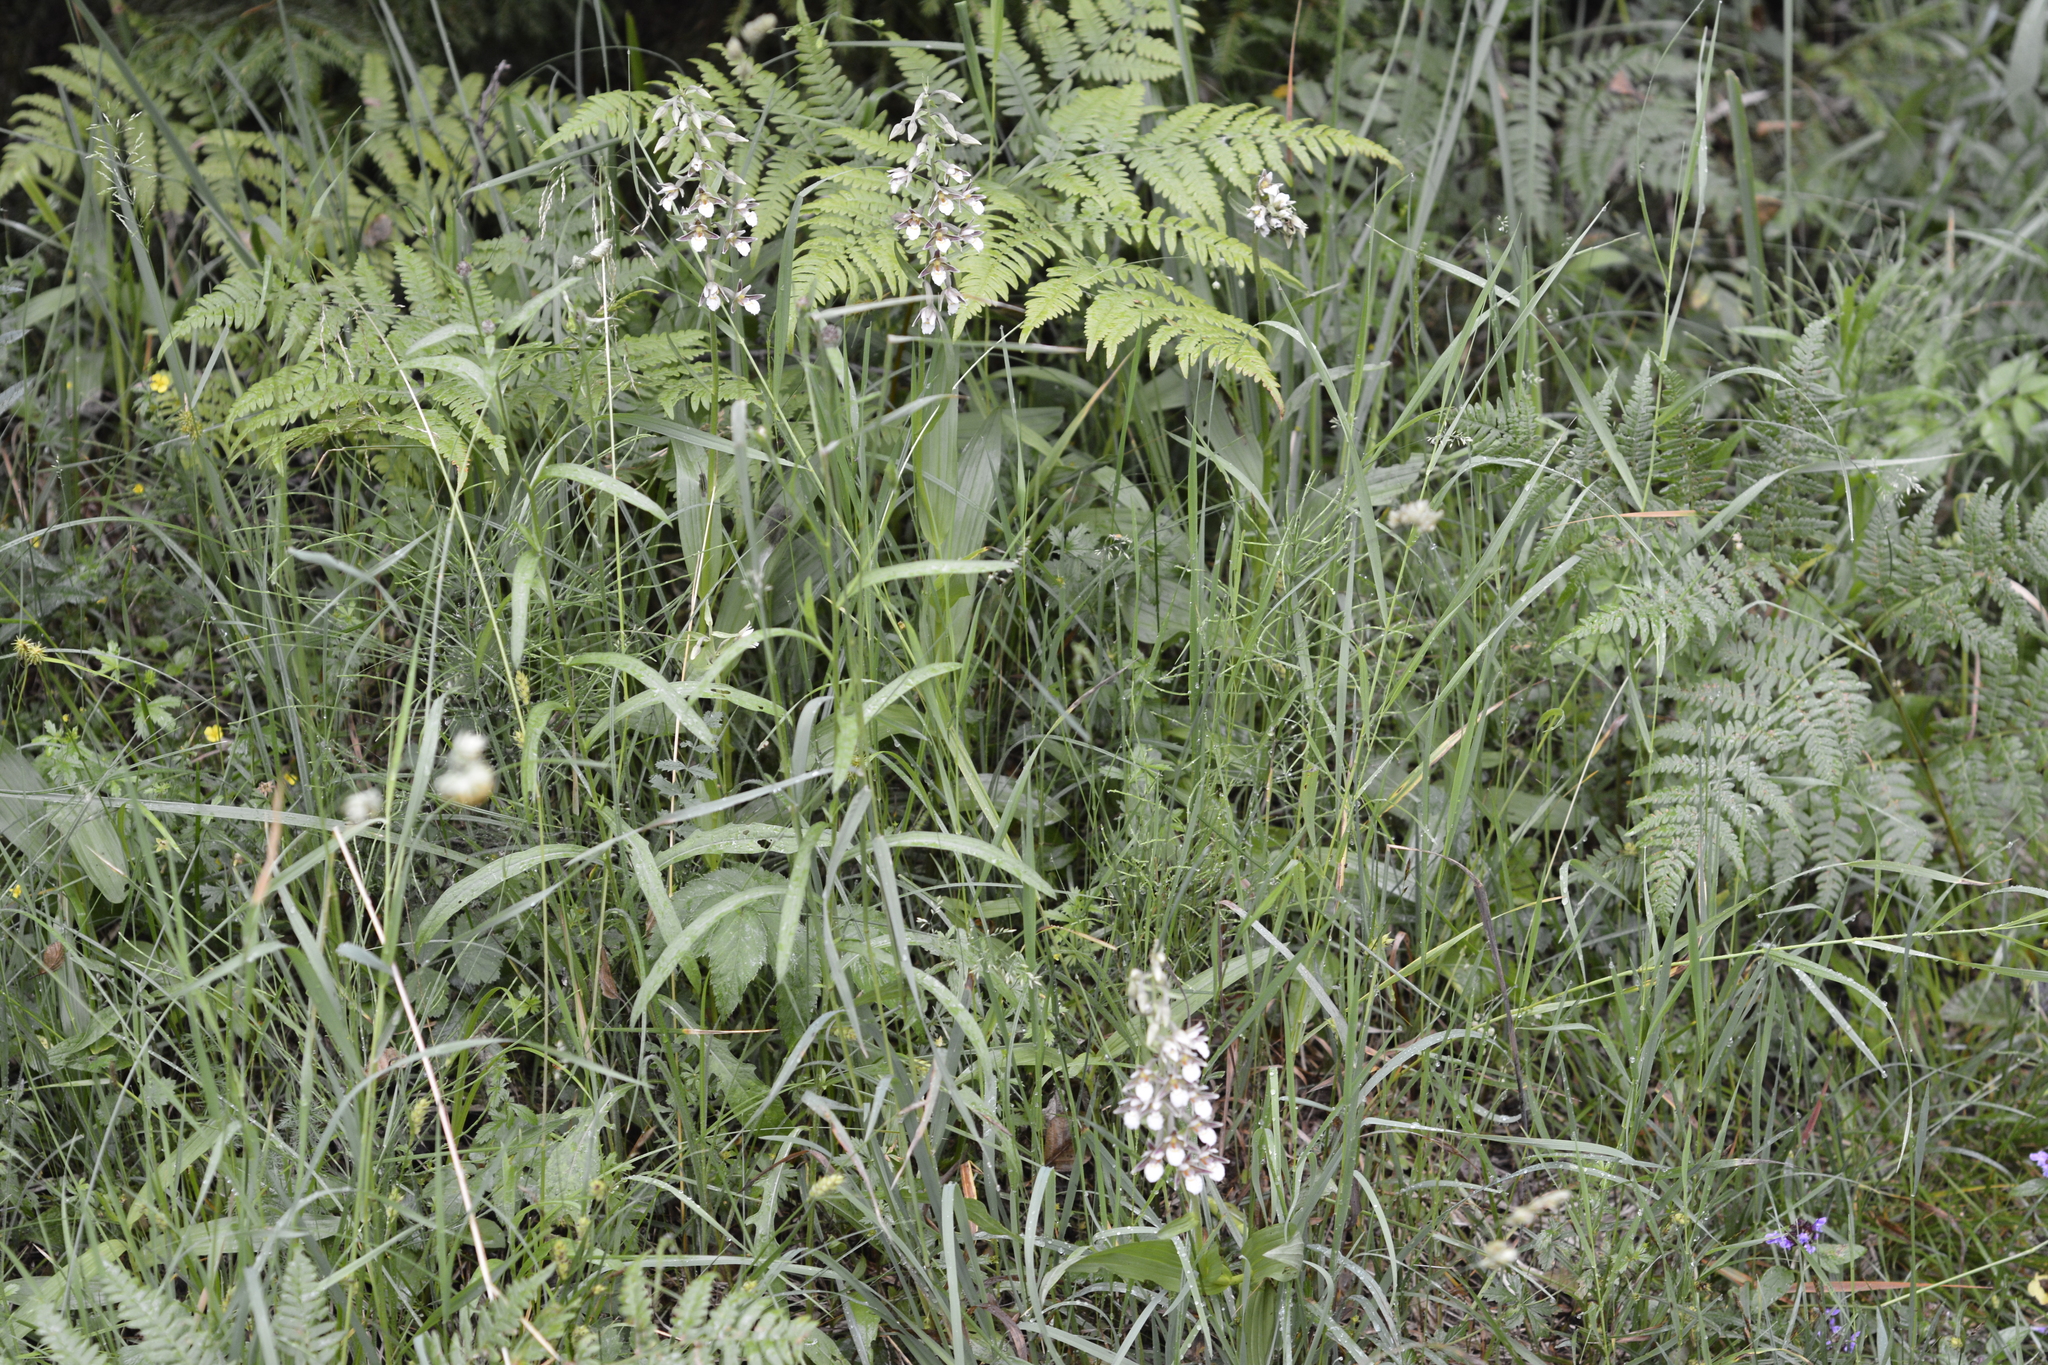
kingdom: Plantae
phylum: Tracheophyta
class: Liliopsida
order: Asparagales
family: Orchidaceae
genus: Epipactis
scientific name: Epipactis palustris
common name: Marsh helleborine
